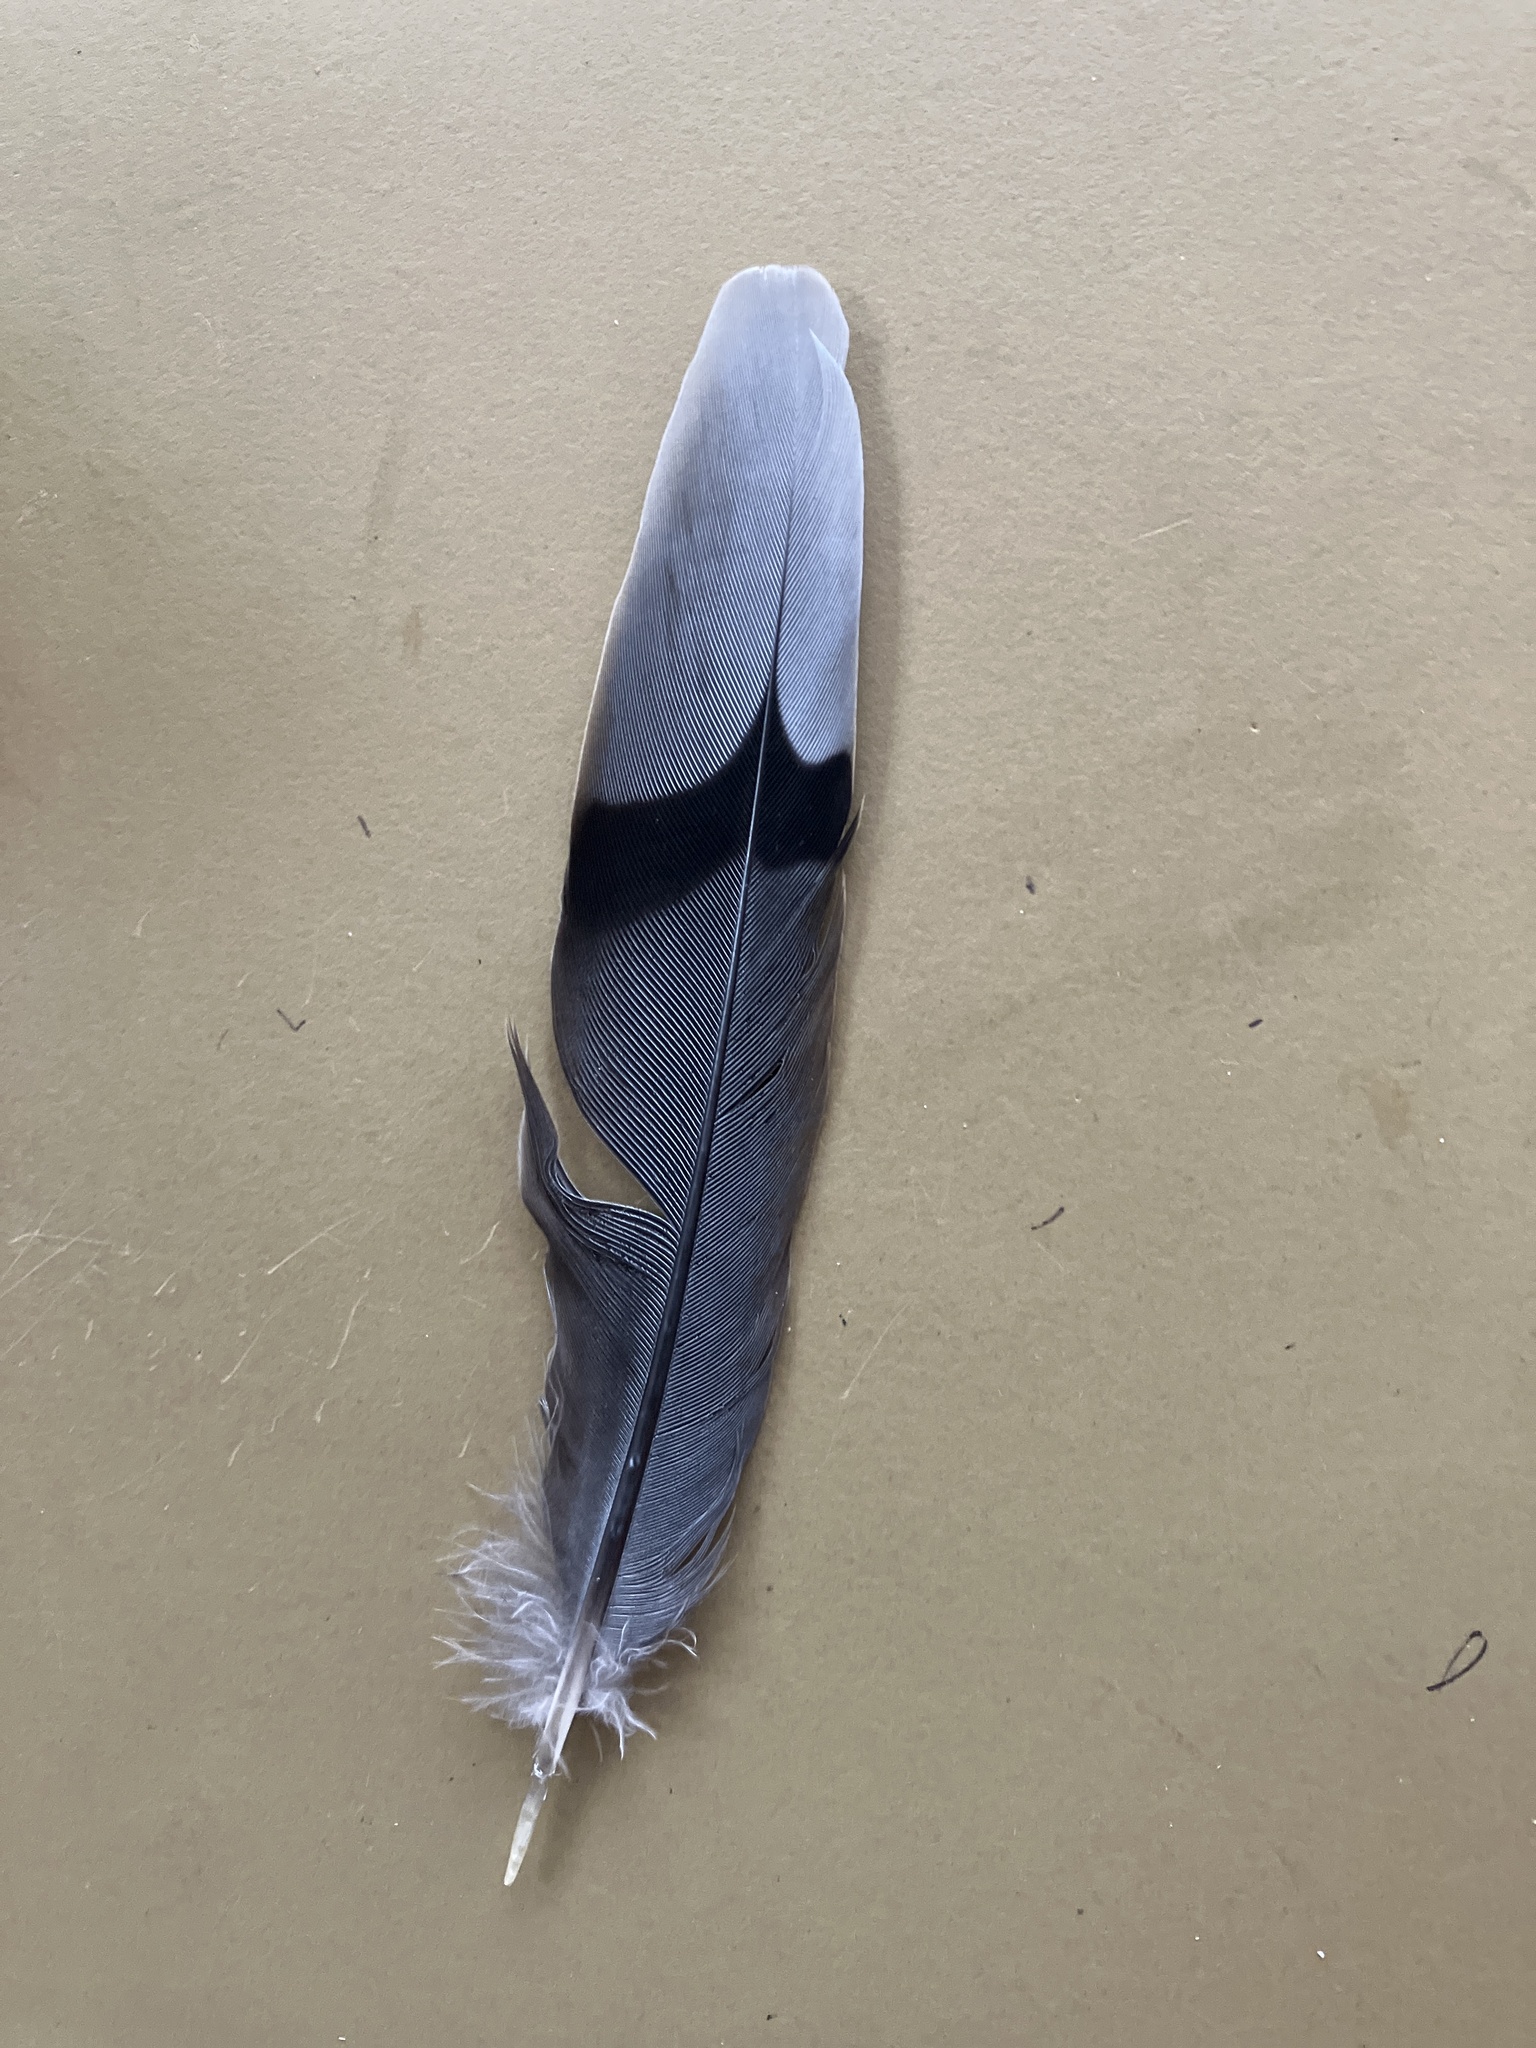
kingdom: Animalia
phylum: Chordata
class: Aves
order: Columbiformes
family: Columbidae
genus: Zenaida
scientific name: Zenaida macroura
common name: Mourning dove
